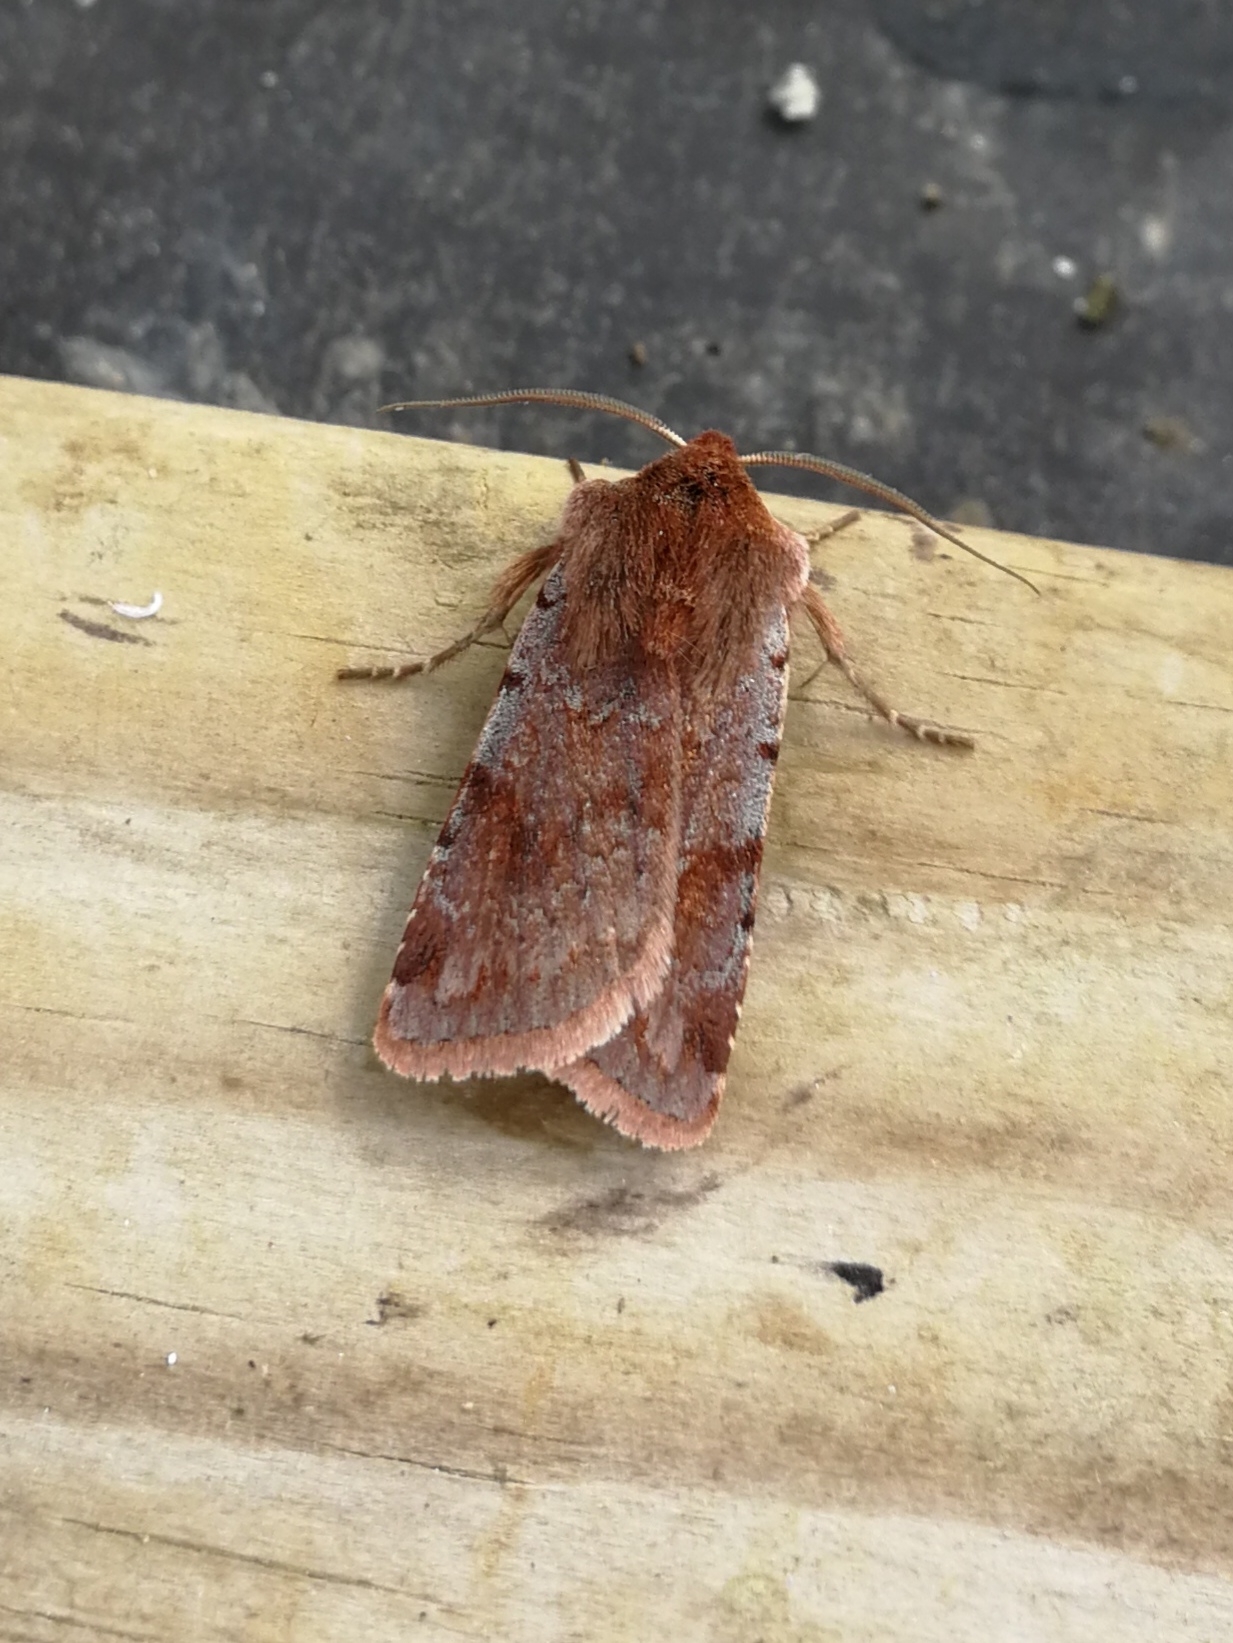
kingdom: Animalia
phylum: Arthropoda
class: Insecta
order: Lepidoptera
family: Noctuidae
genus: Cerastis
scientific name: Cerastis rubricosa
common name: Red chestnut
